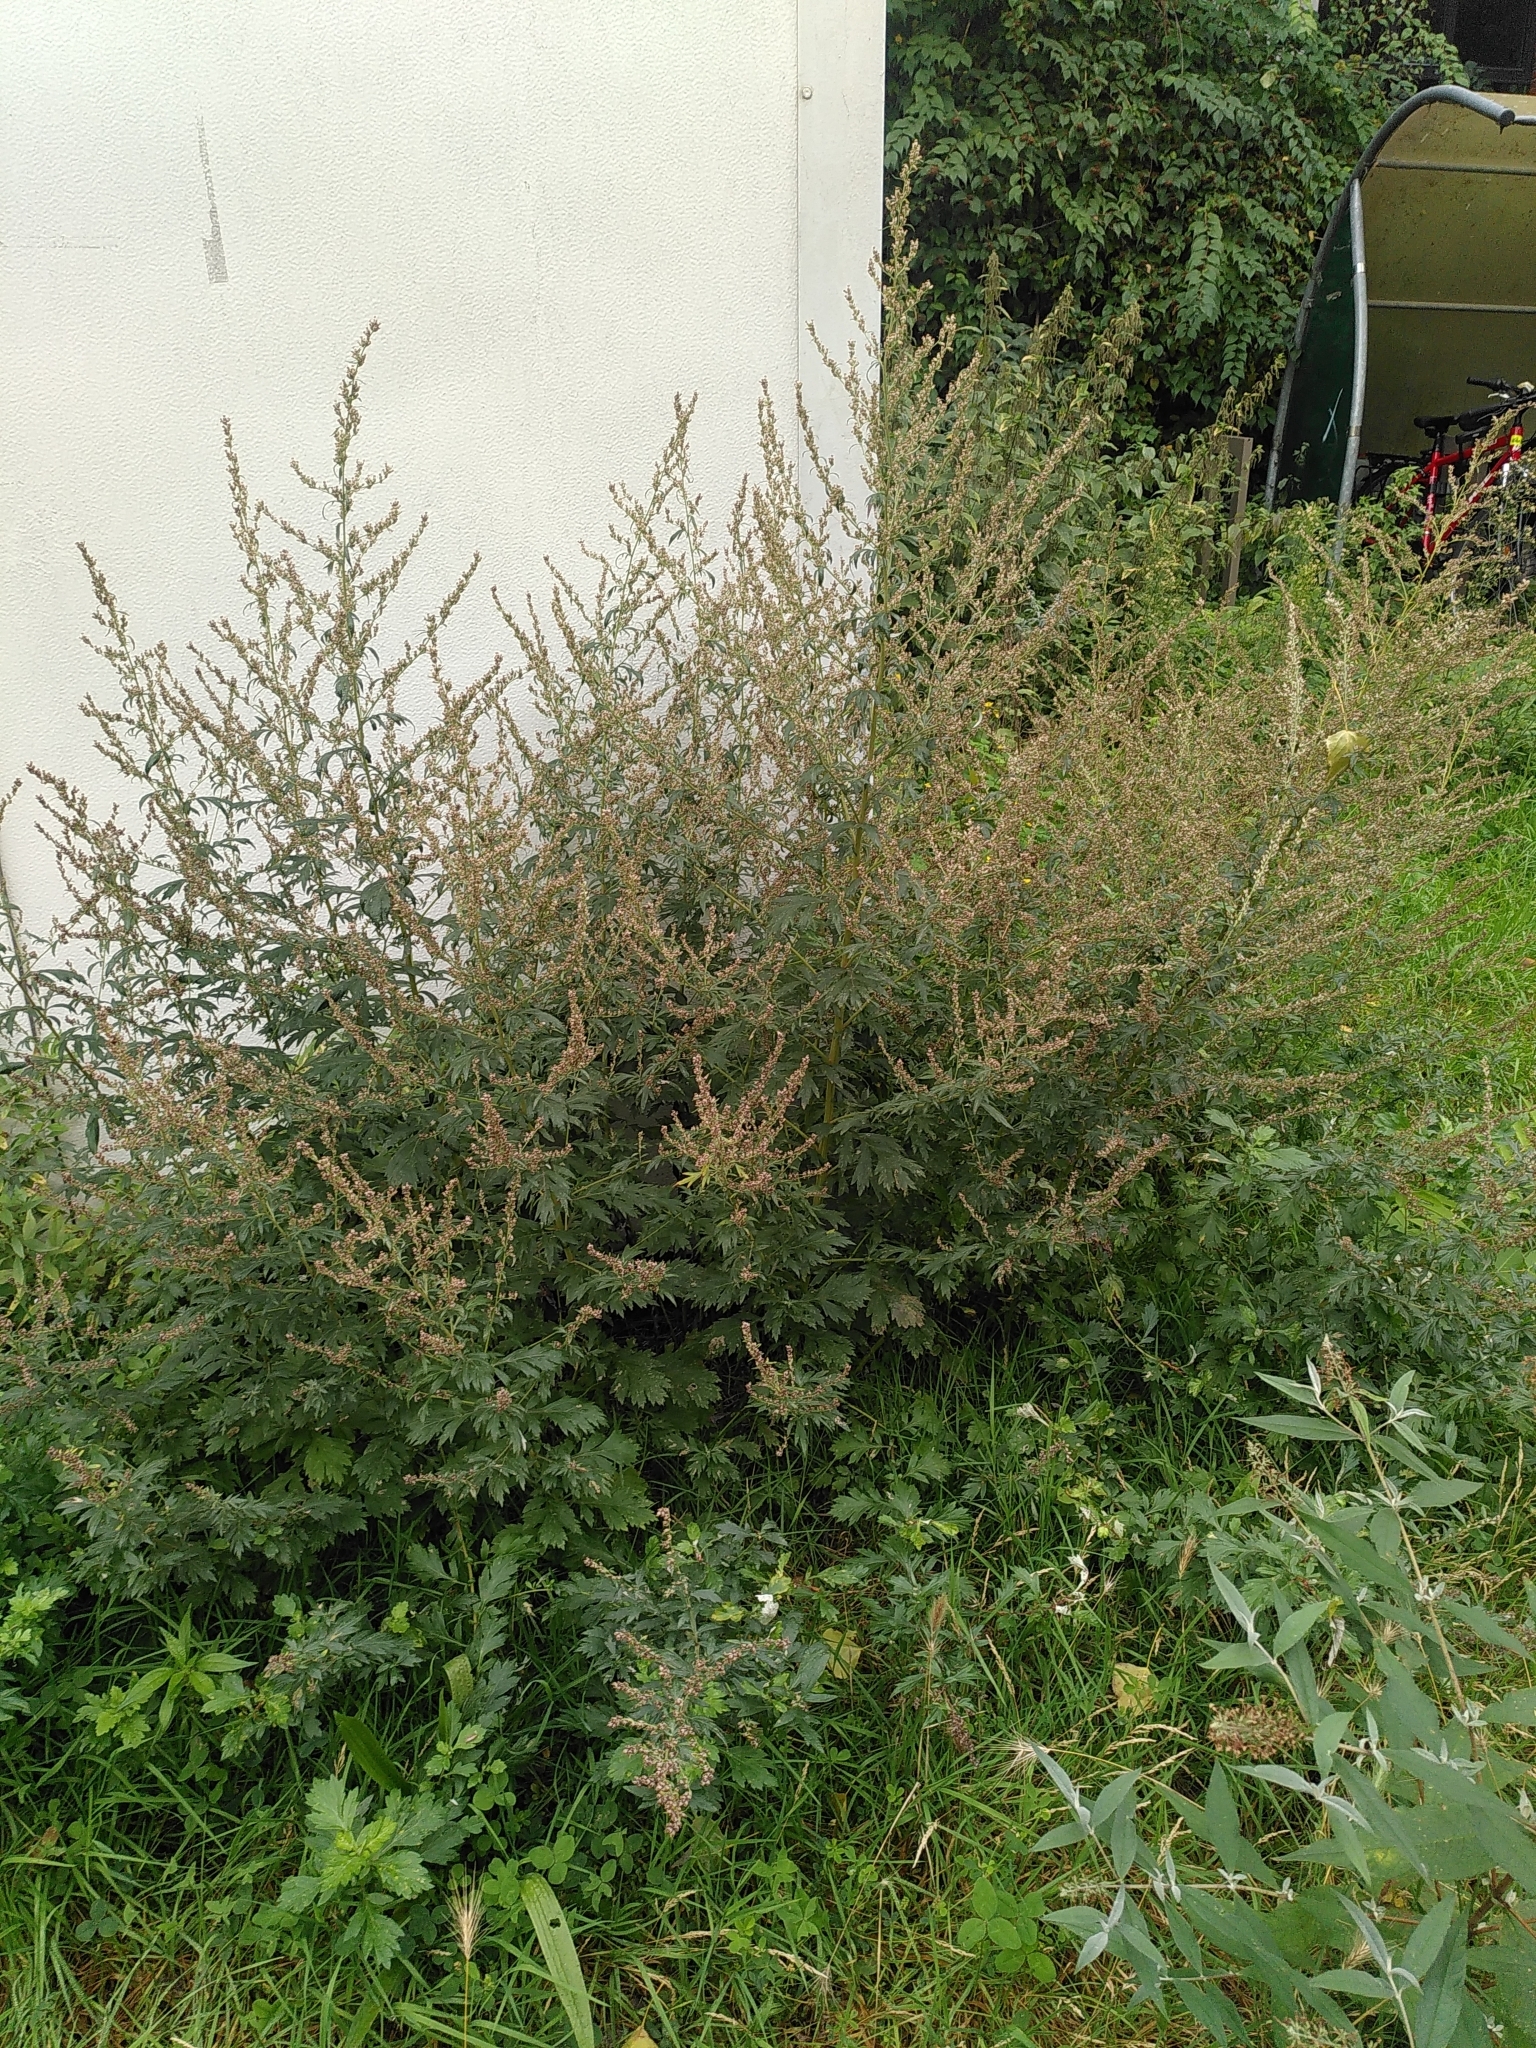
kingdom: Plantae
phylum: Tracheophyta
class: Magnoliopsida
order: Asterales
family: Asteraceae
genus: Artemisia
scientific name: Artemisia vulgaris
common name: Mugwort
